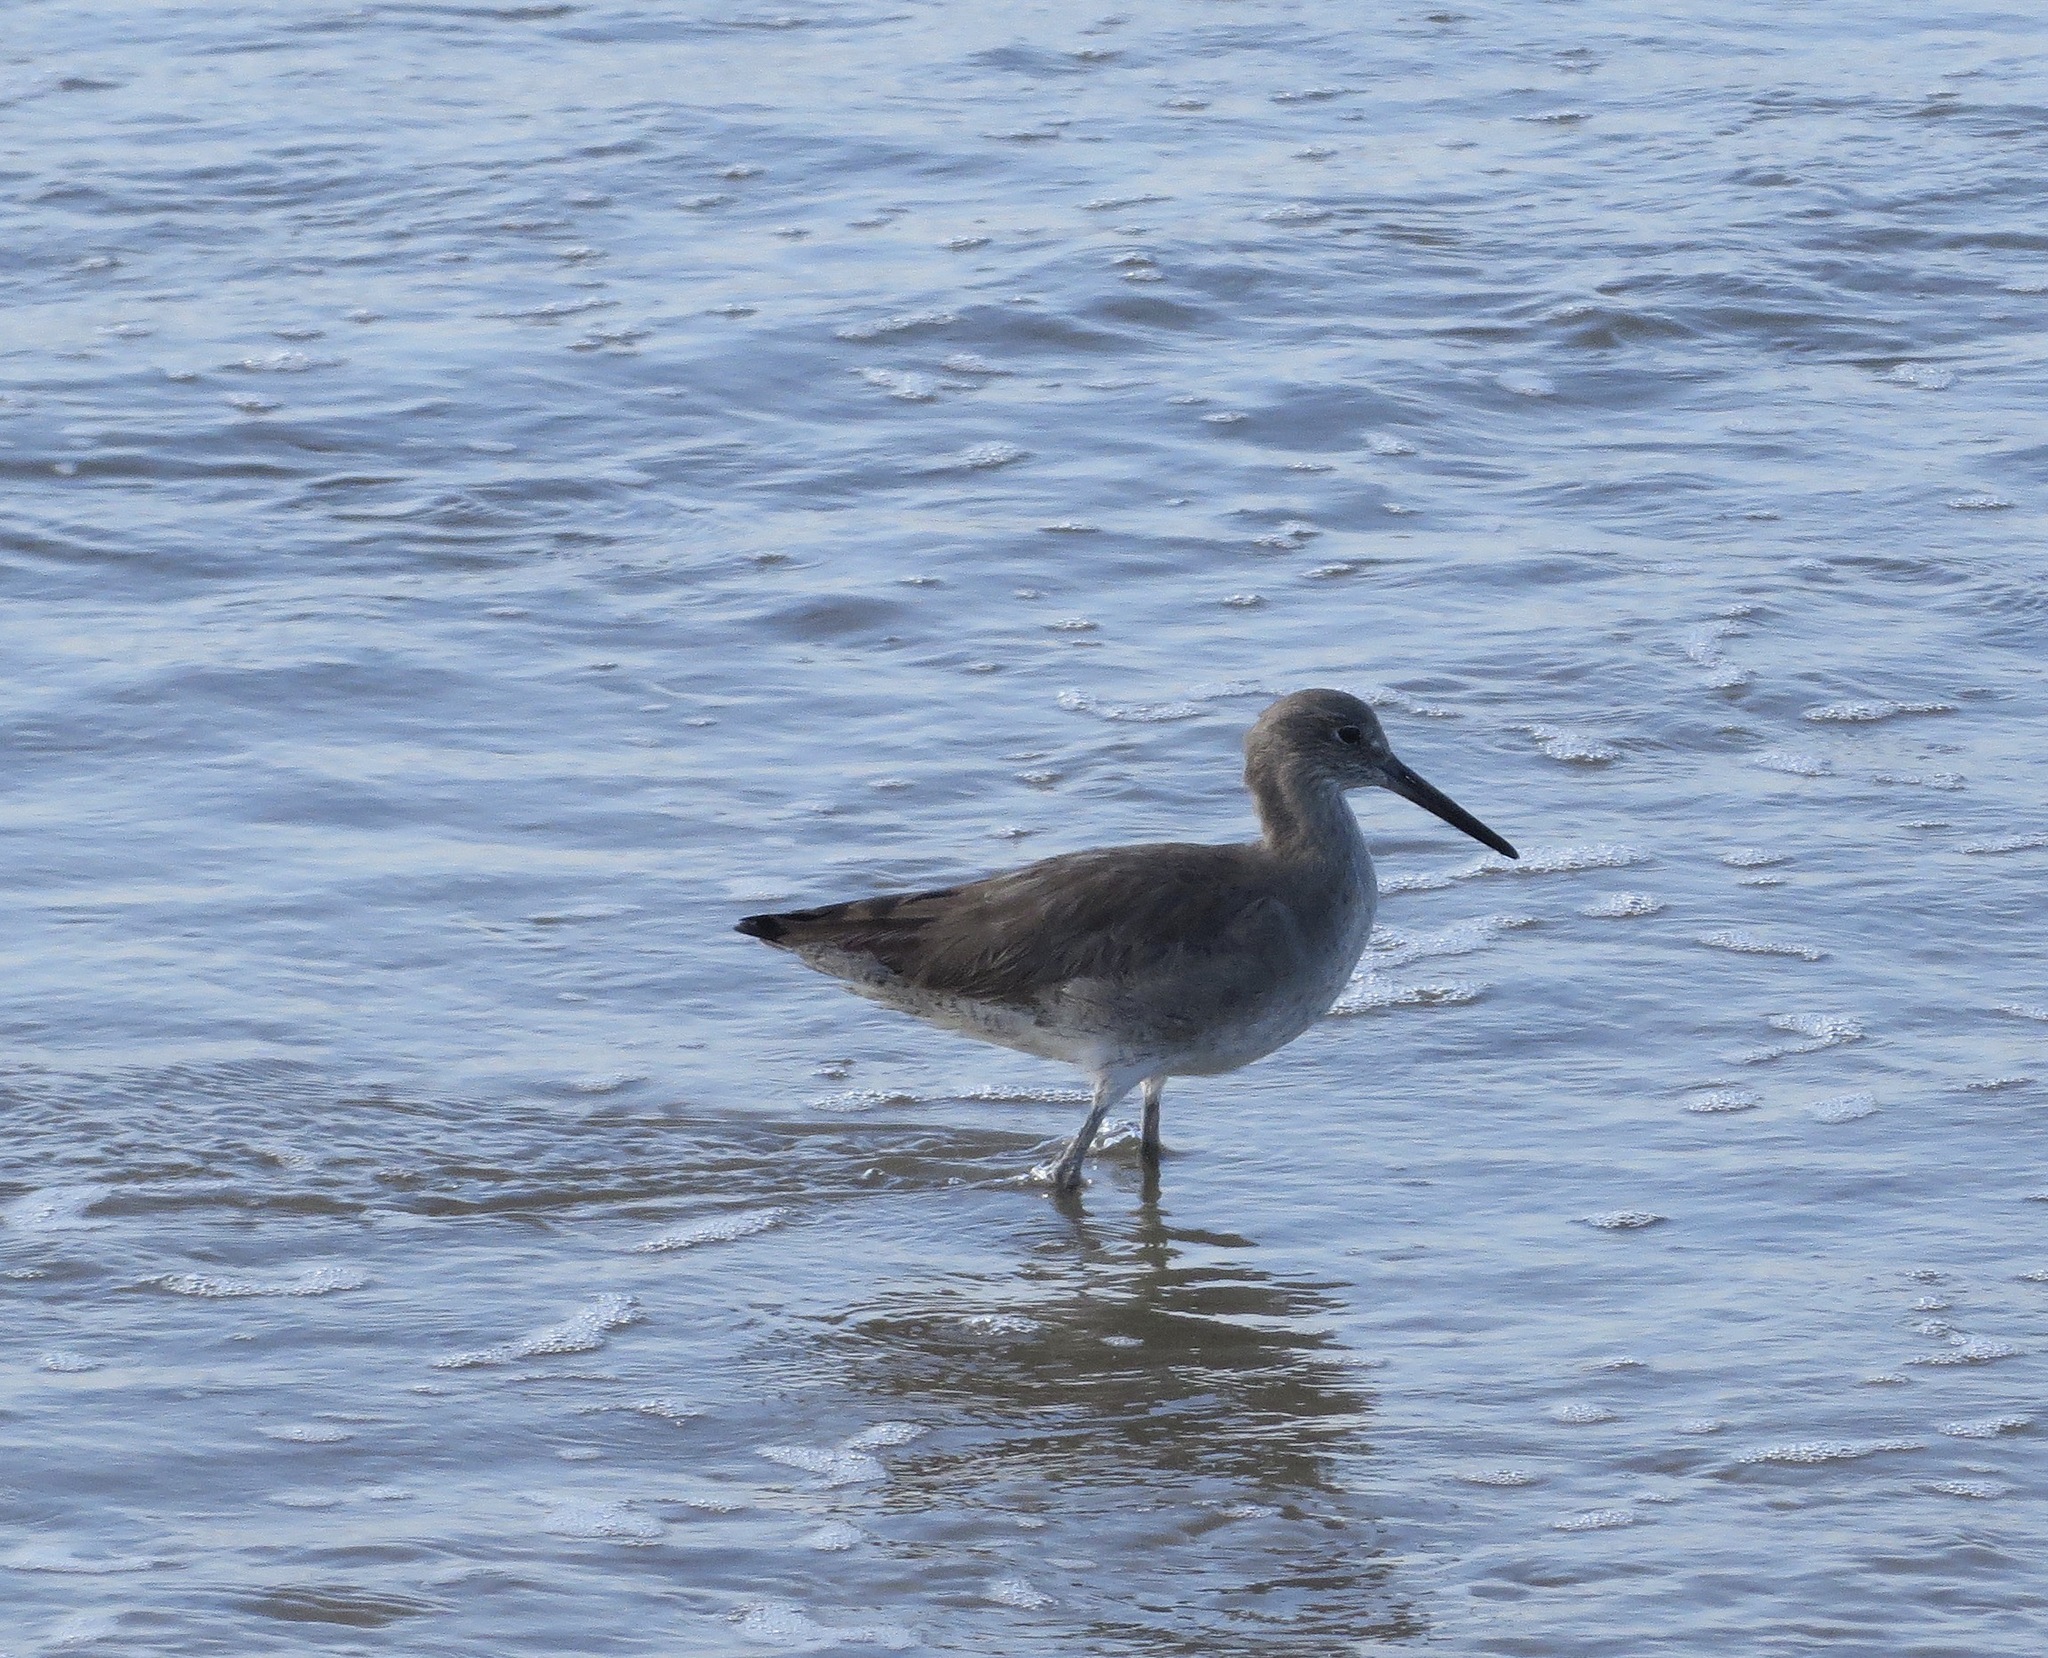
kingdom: Animalia
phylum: Chordata
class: Aves
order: Charadriiformes
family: Scolopacidae
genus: Tringa
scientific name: Tringa semipalmata
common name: Willet
